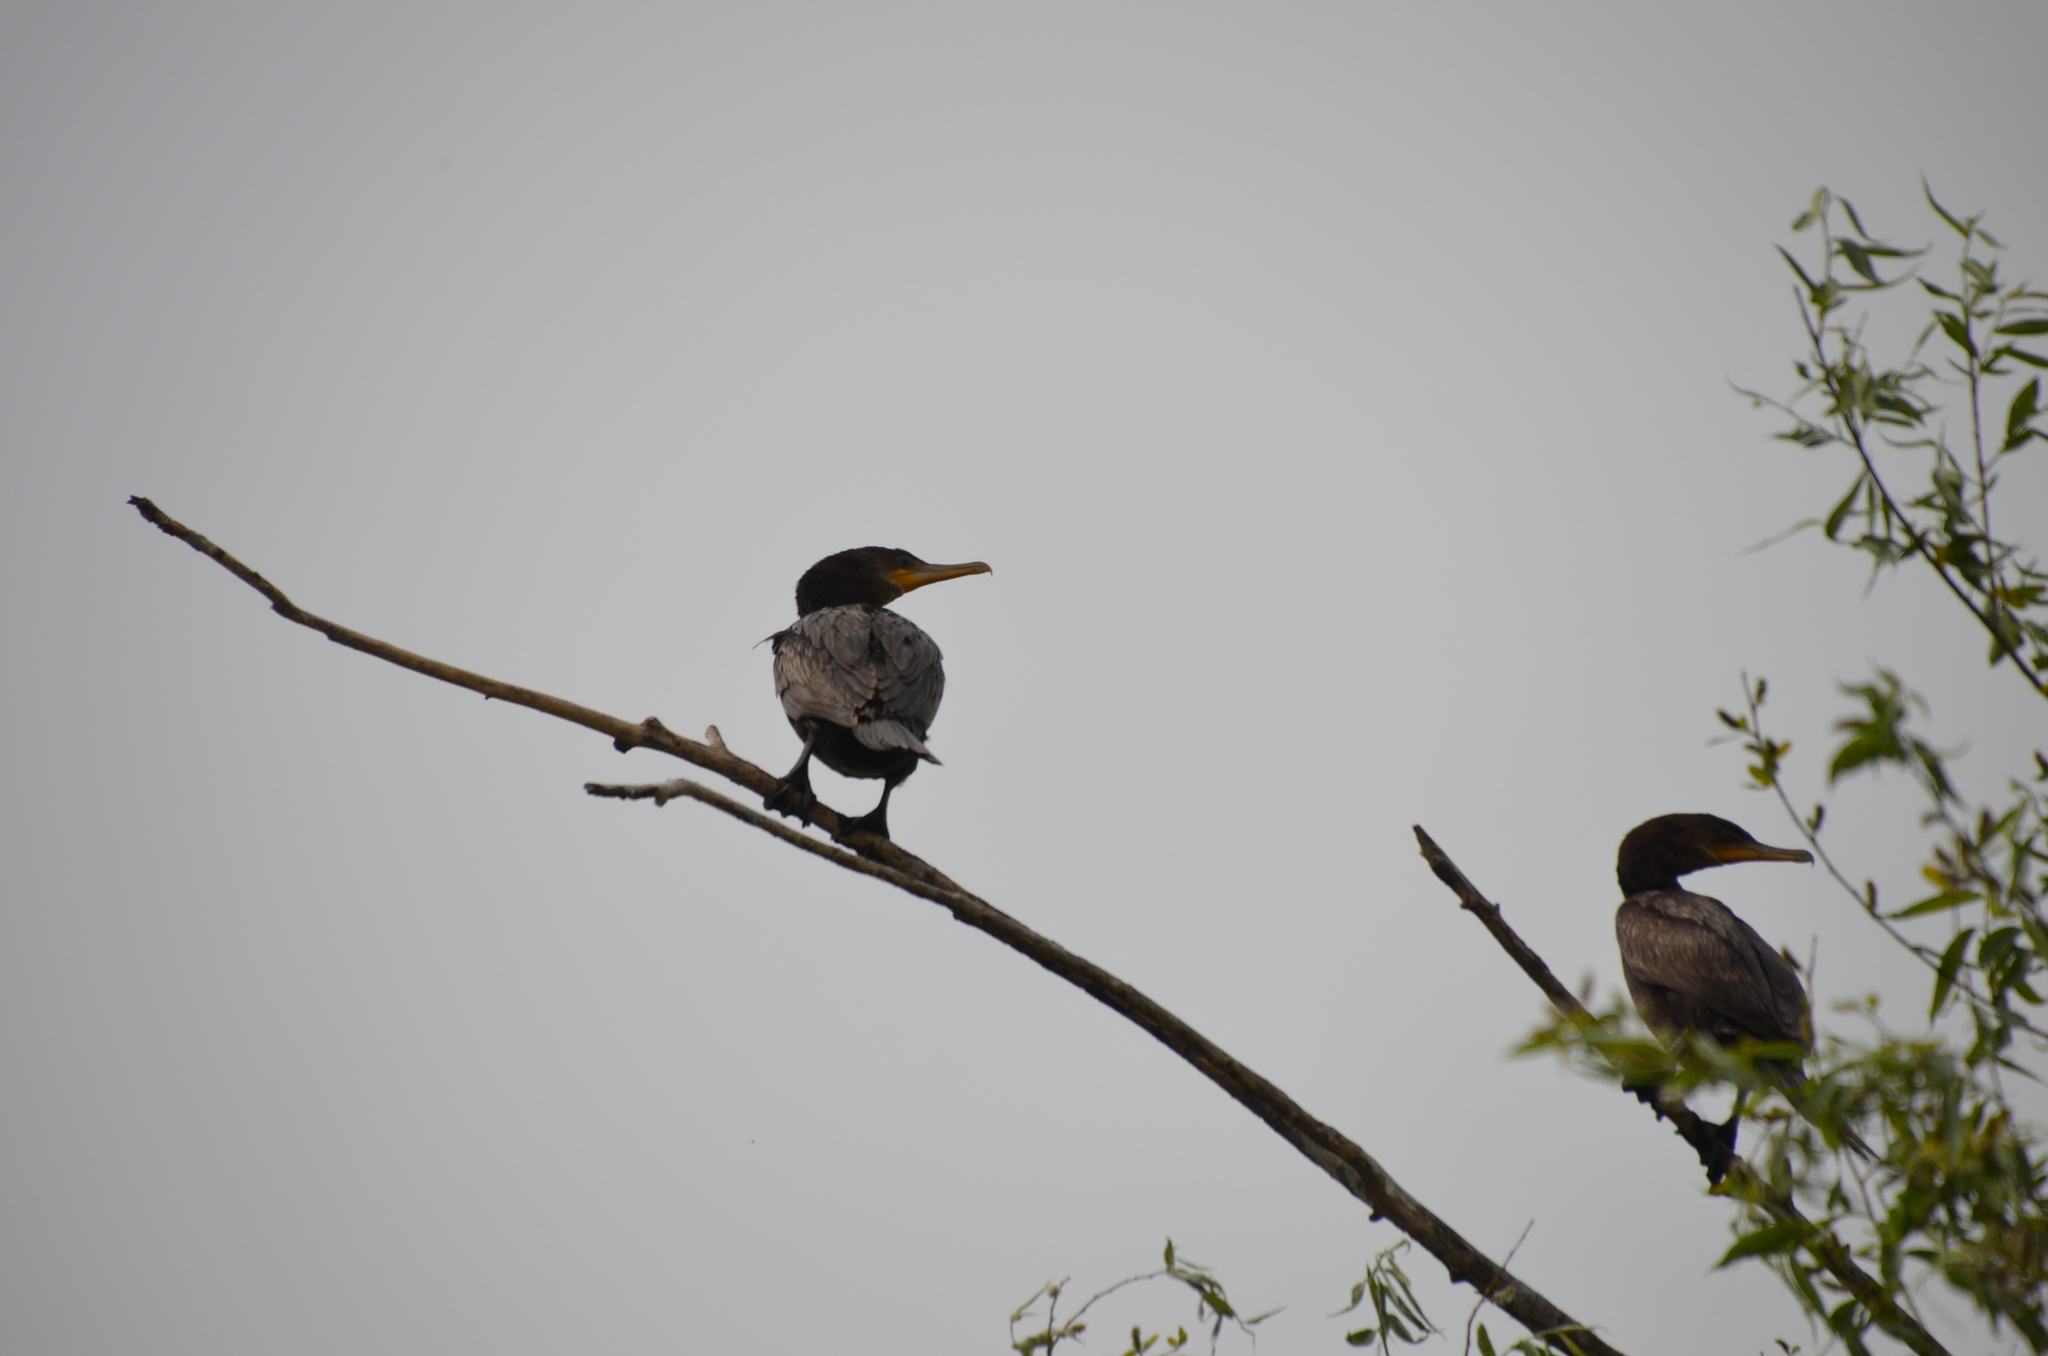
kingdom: Animalia
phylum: Chordata
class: Aves
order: Suliformes
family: Phalacrocoracidae
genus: Phalacrocorax
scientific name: Phalacrocorax brasilianus
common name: Neotropic cormorant
